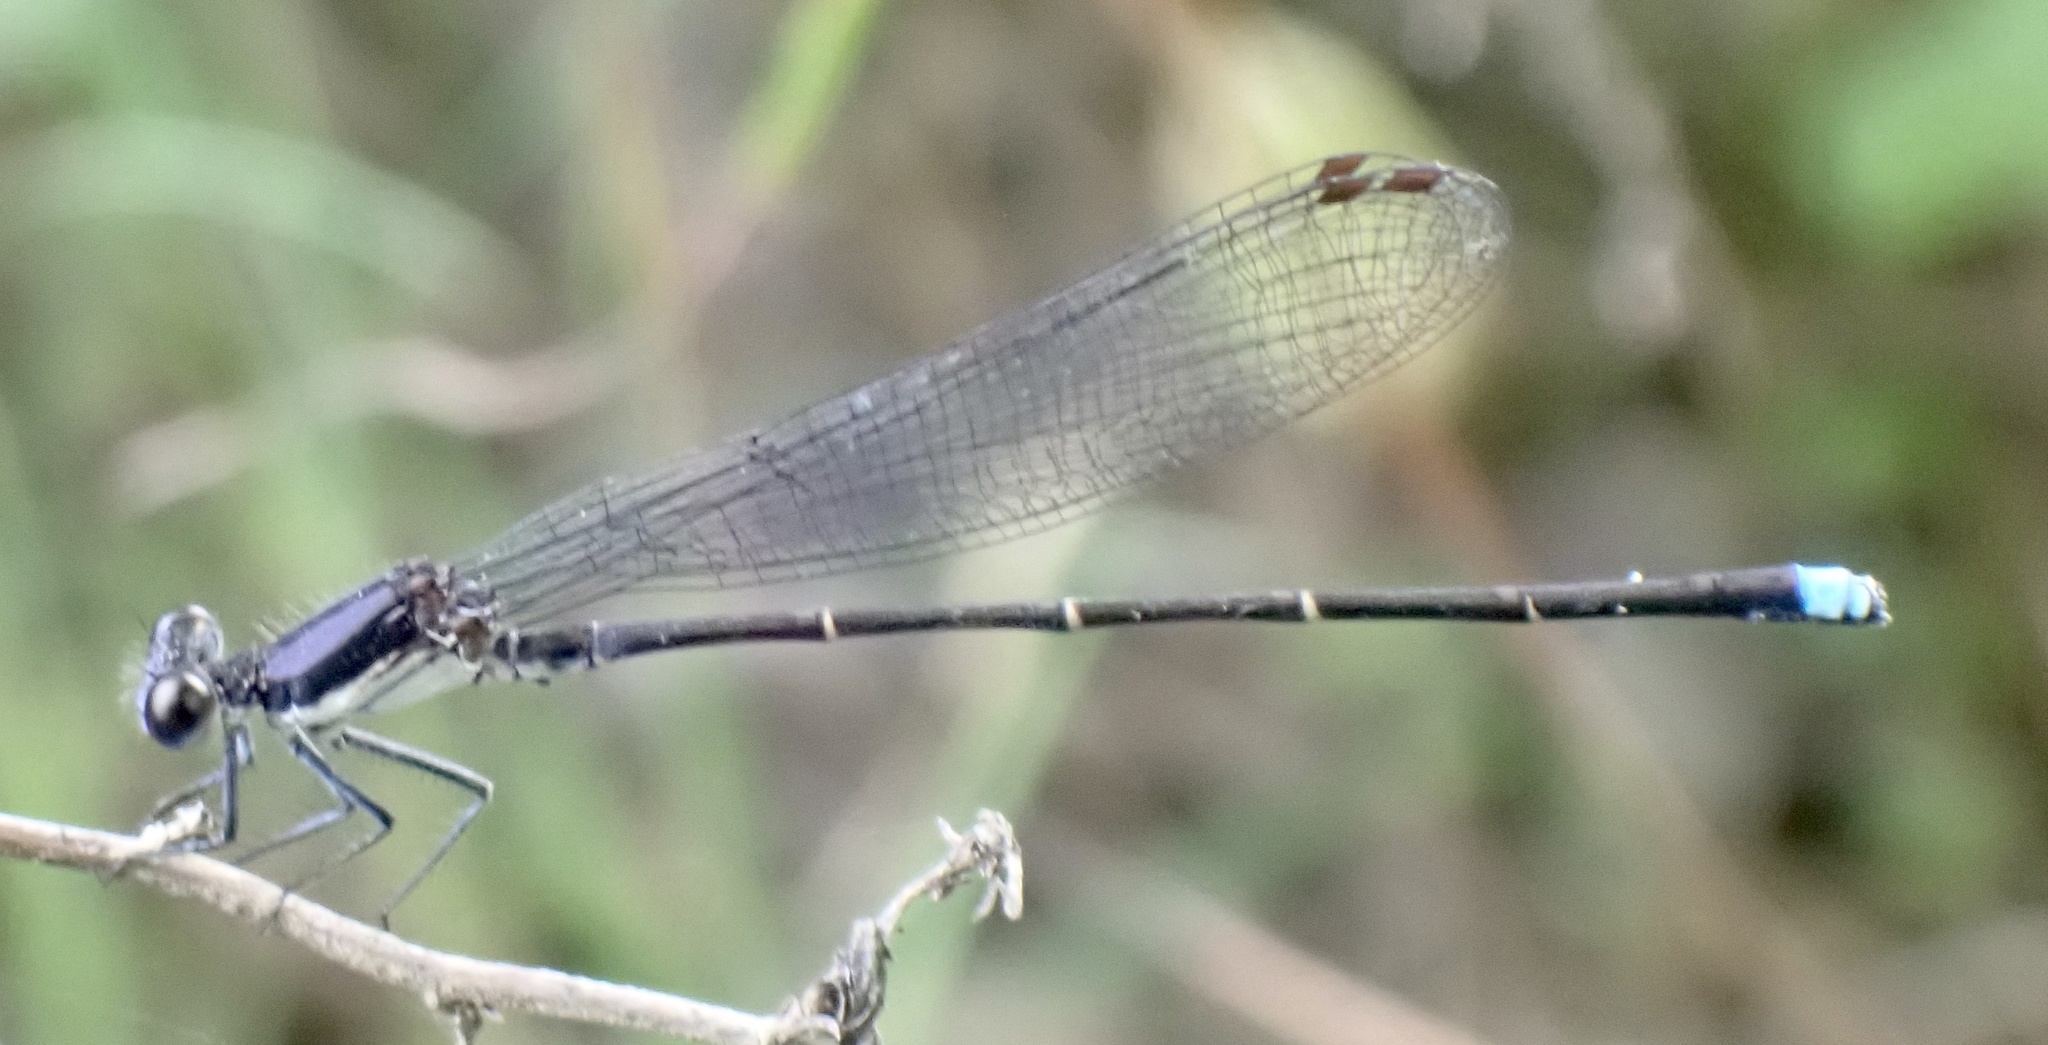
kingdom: Animalia
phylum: Arthropoda
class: Insecta
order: Odonata
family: Coenagrionidae
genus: Argia
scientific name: Argia tibialis
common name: Blue-tipped dancer
